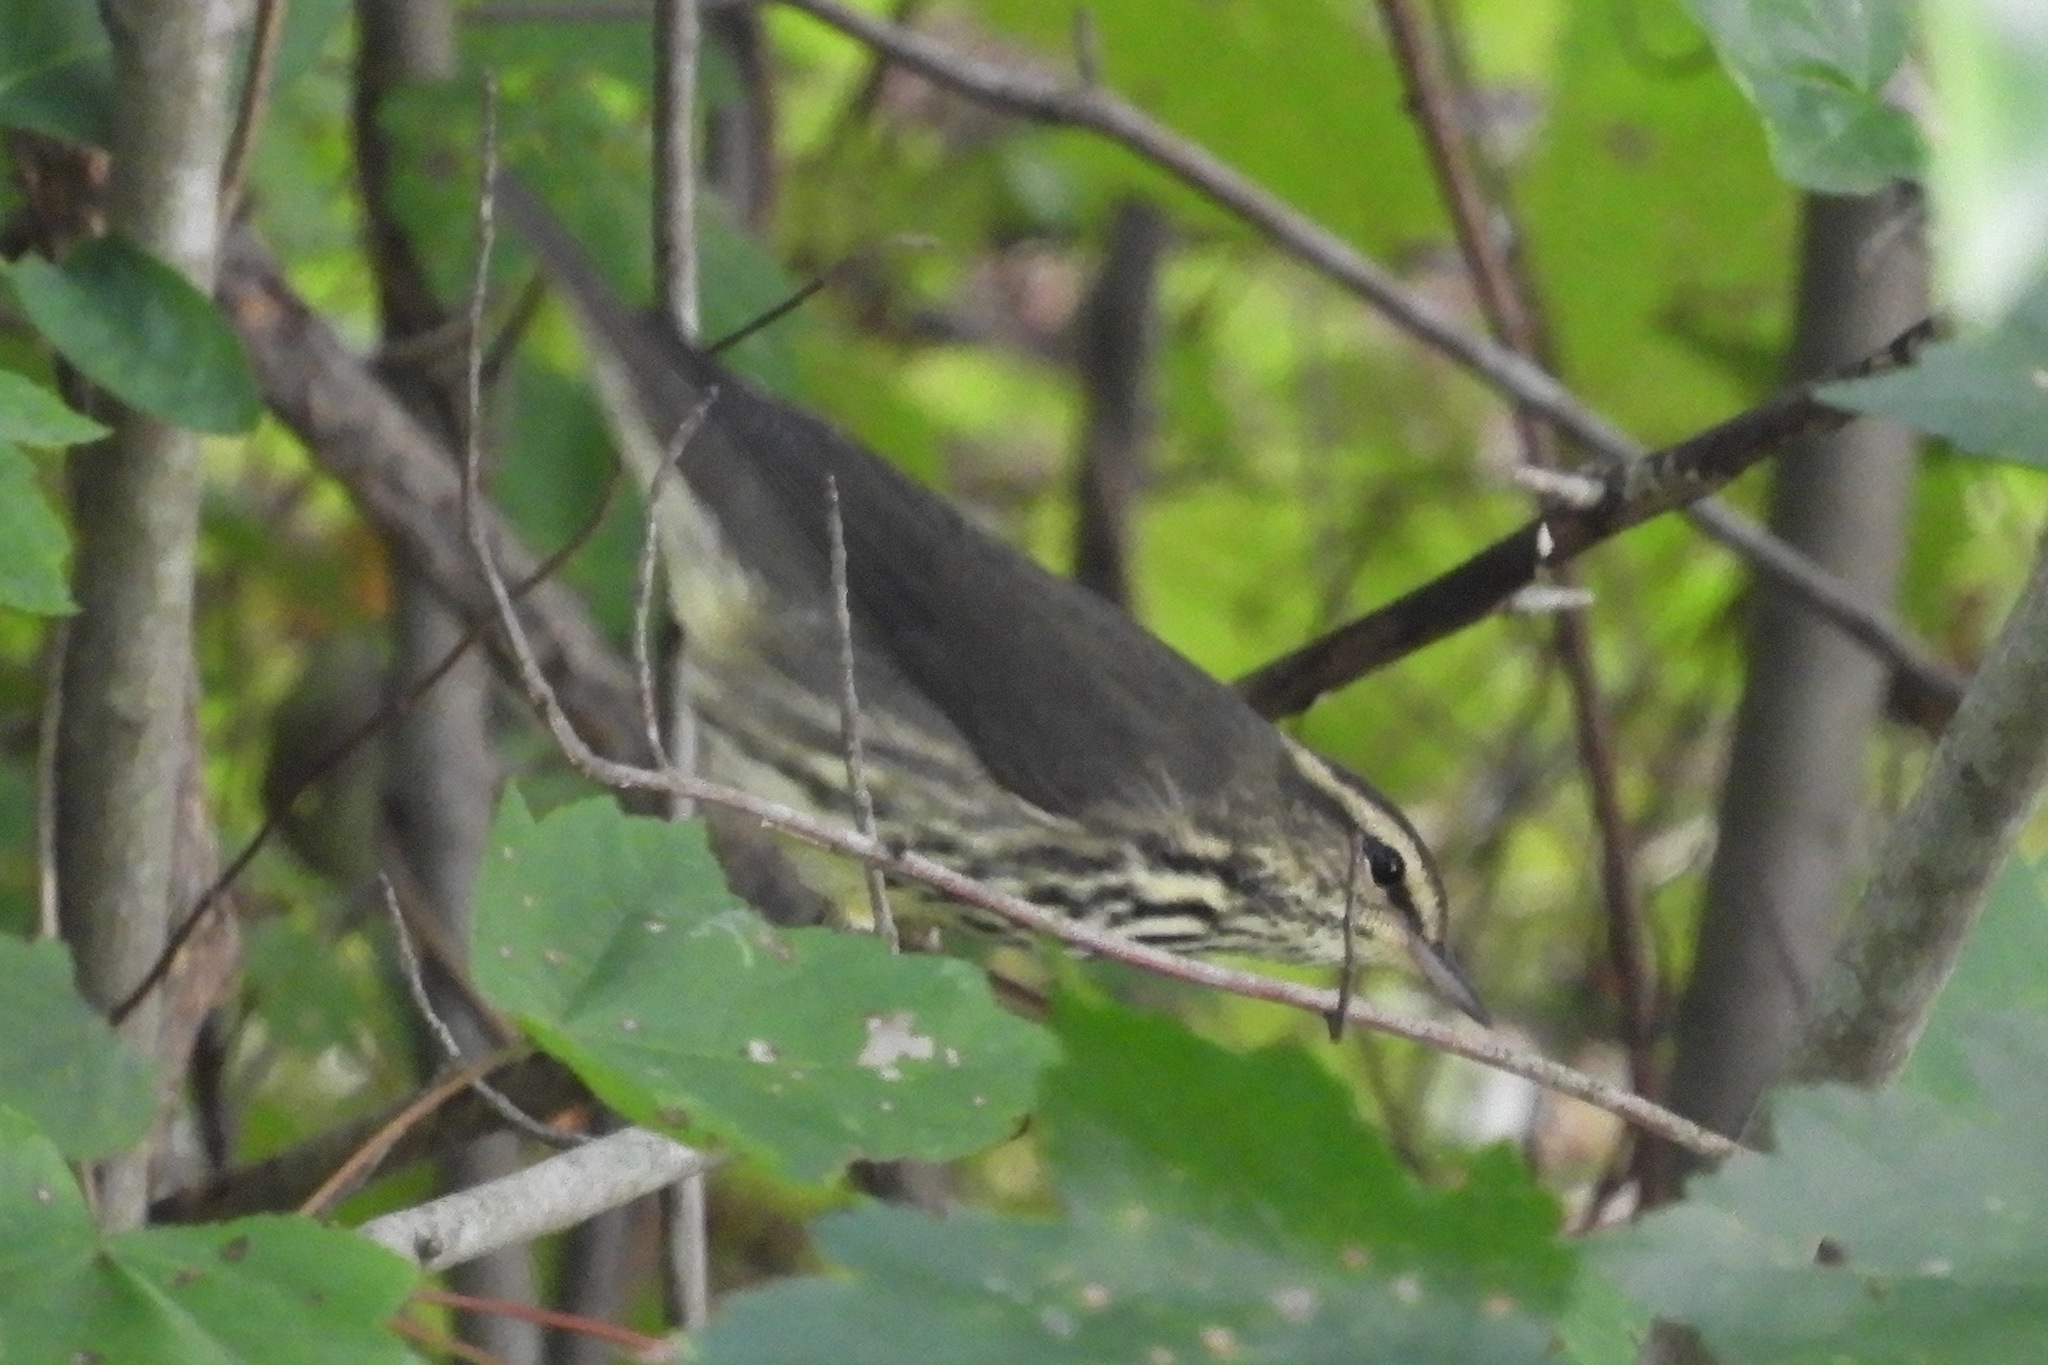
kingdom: Animalia
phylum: Chordata
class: Aves
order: Passeriformes
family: Parulidae
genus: Parkesia
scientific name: Parkesia noveboracensis
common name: Northern waterthrush
